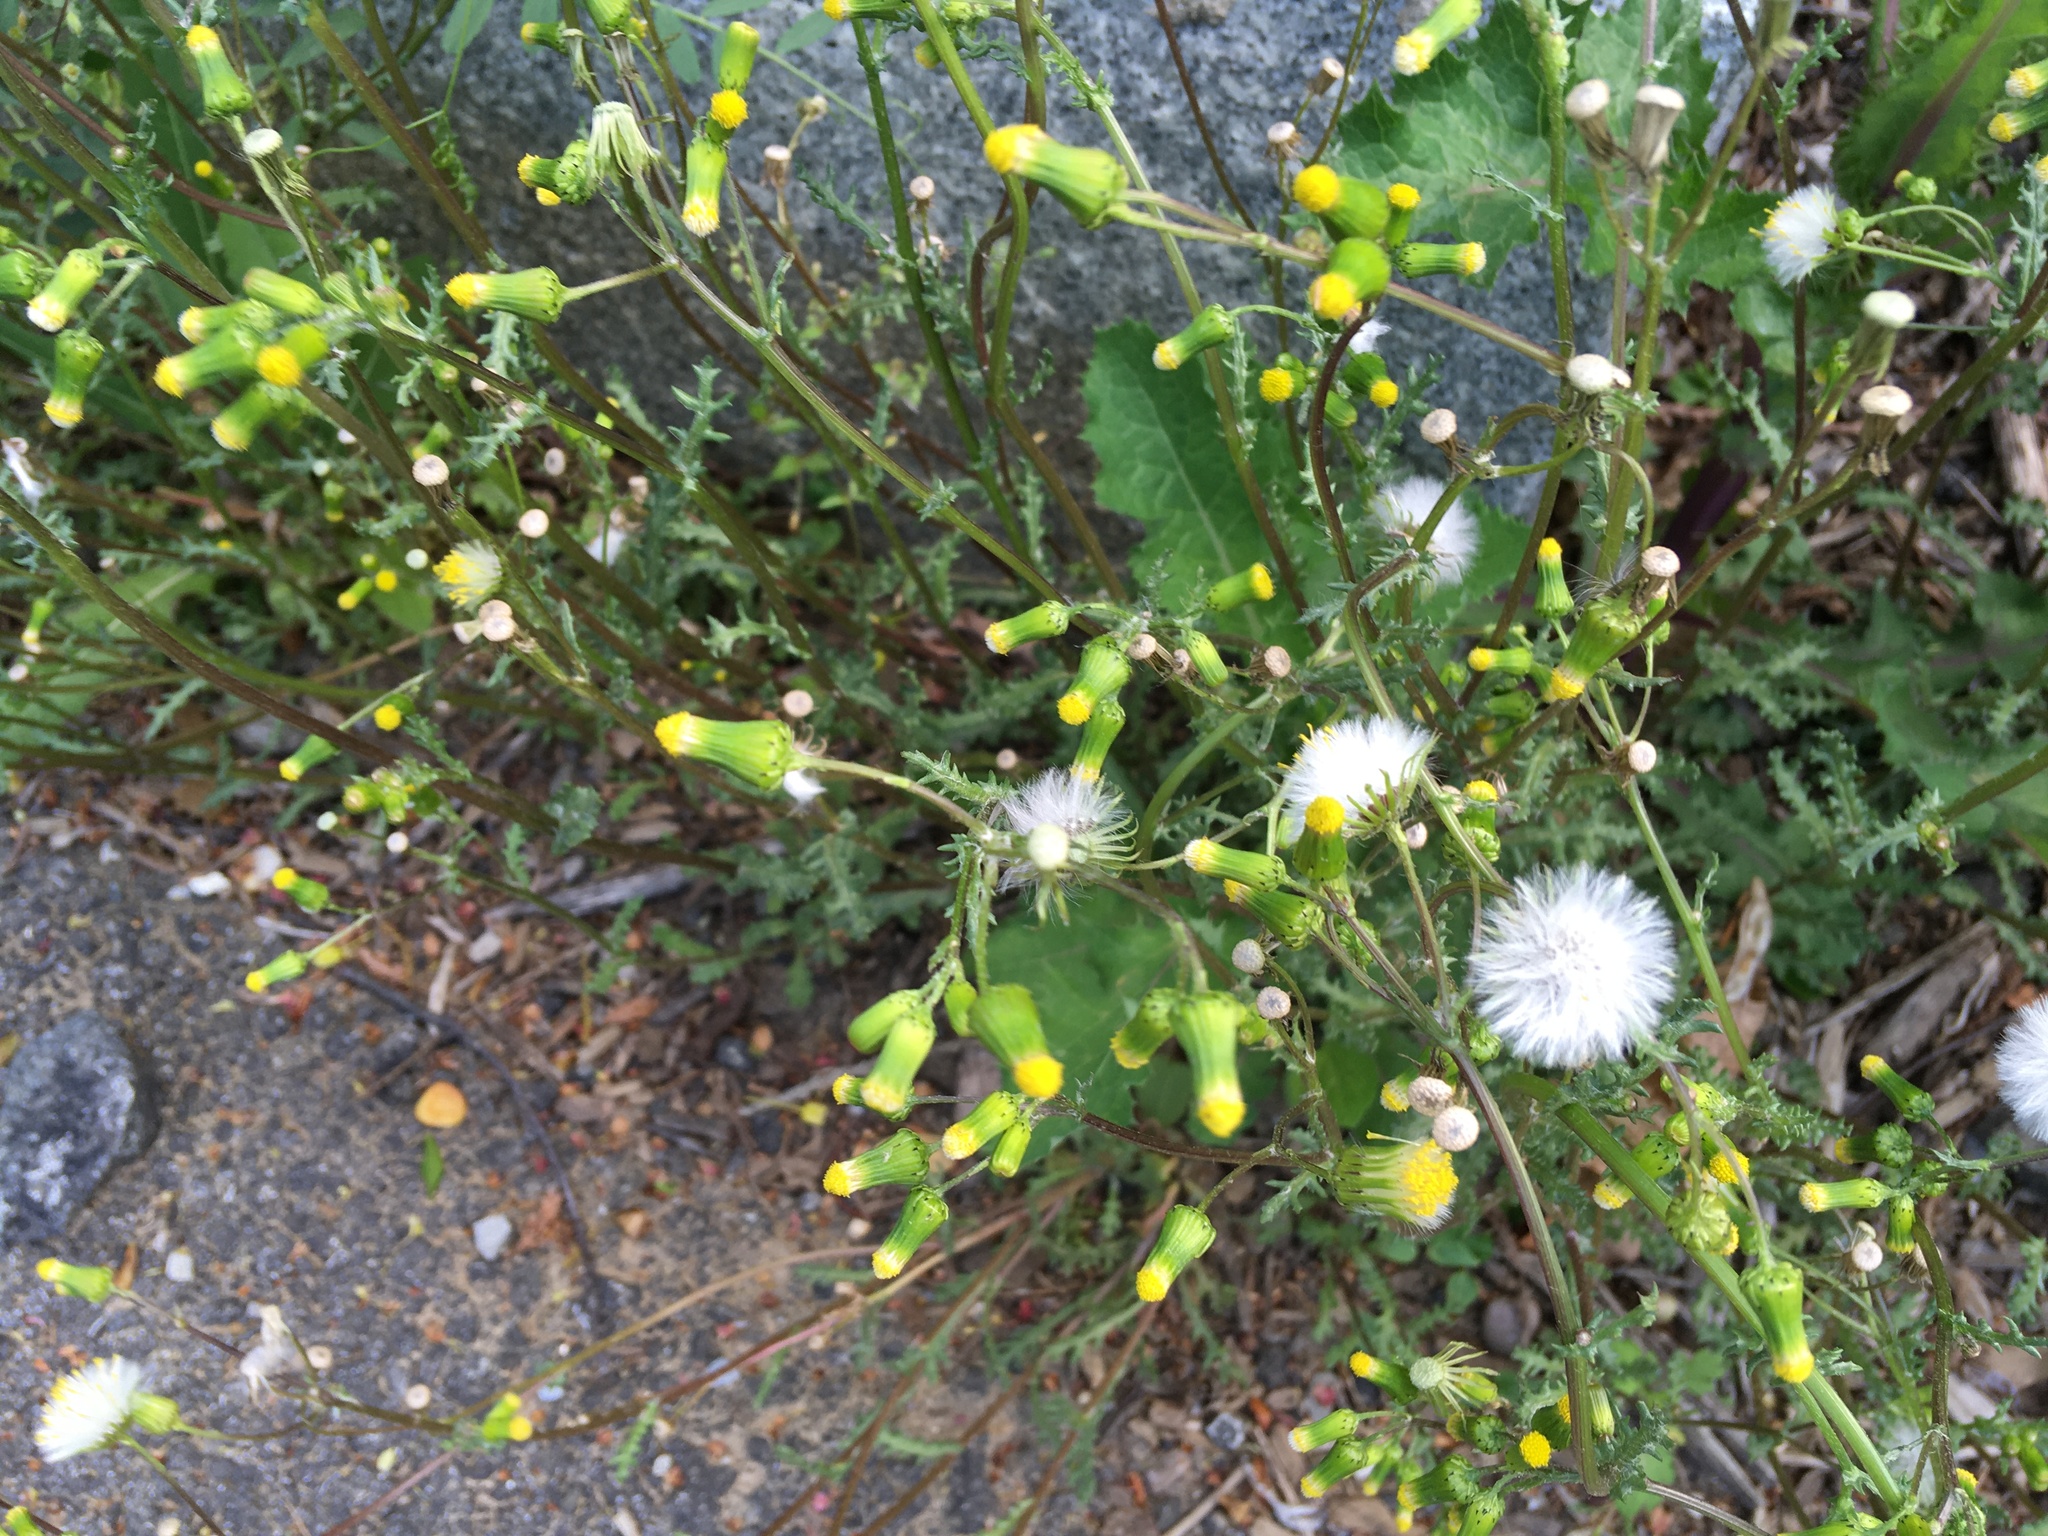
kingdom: Plantae
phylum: Tracheophyta
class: Magnoliopsida
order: Asterales
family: Asteraceae
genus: Senecio
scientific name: Senecio vulgaris
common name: Old-man-in-the-spring
